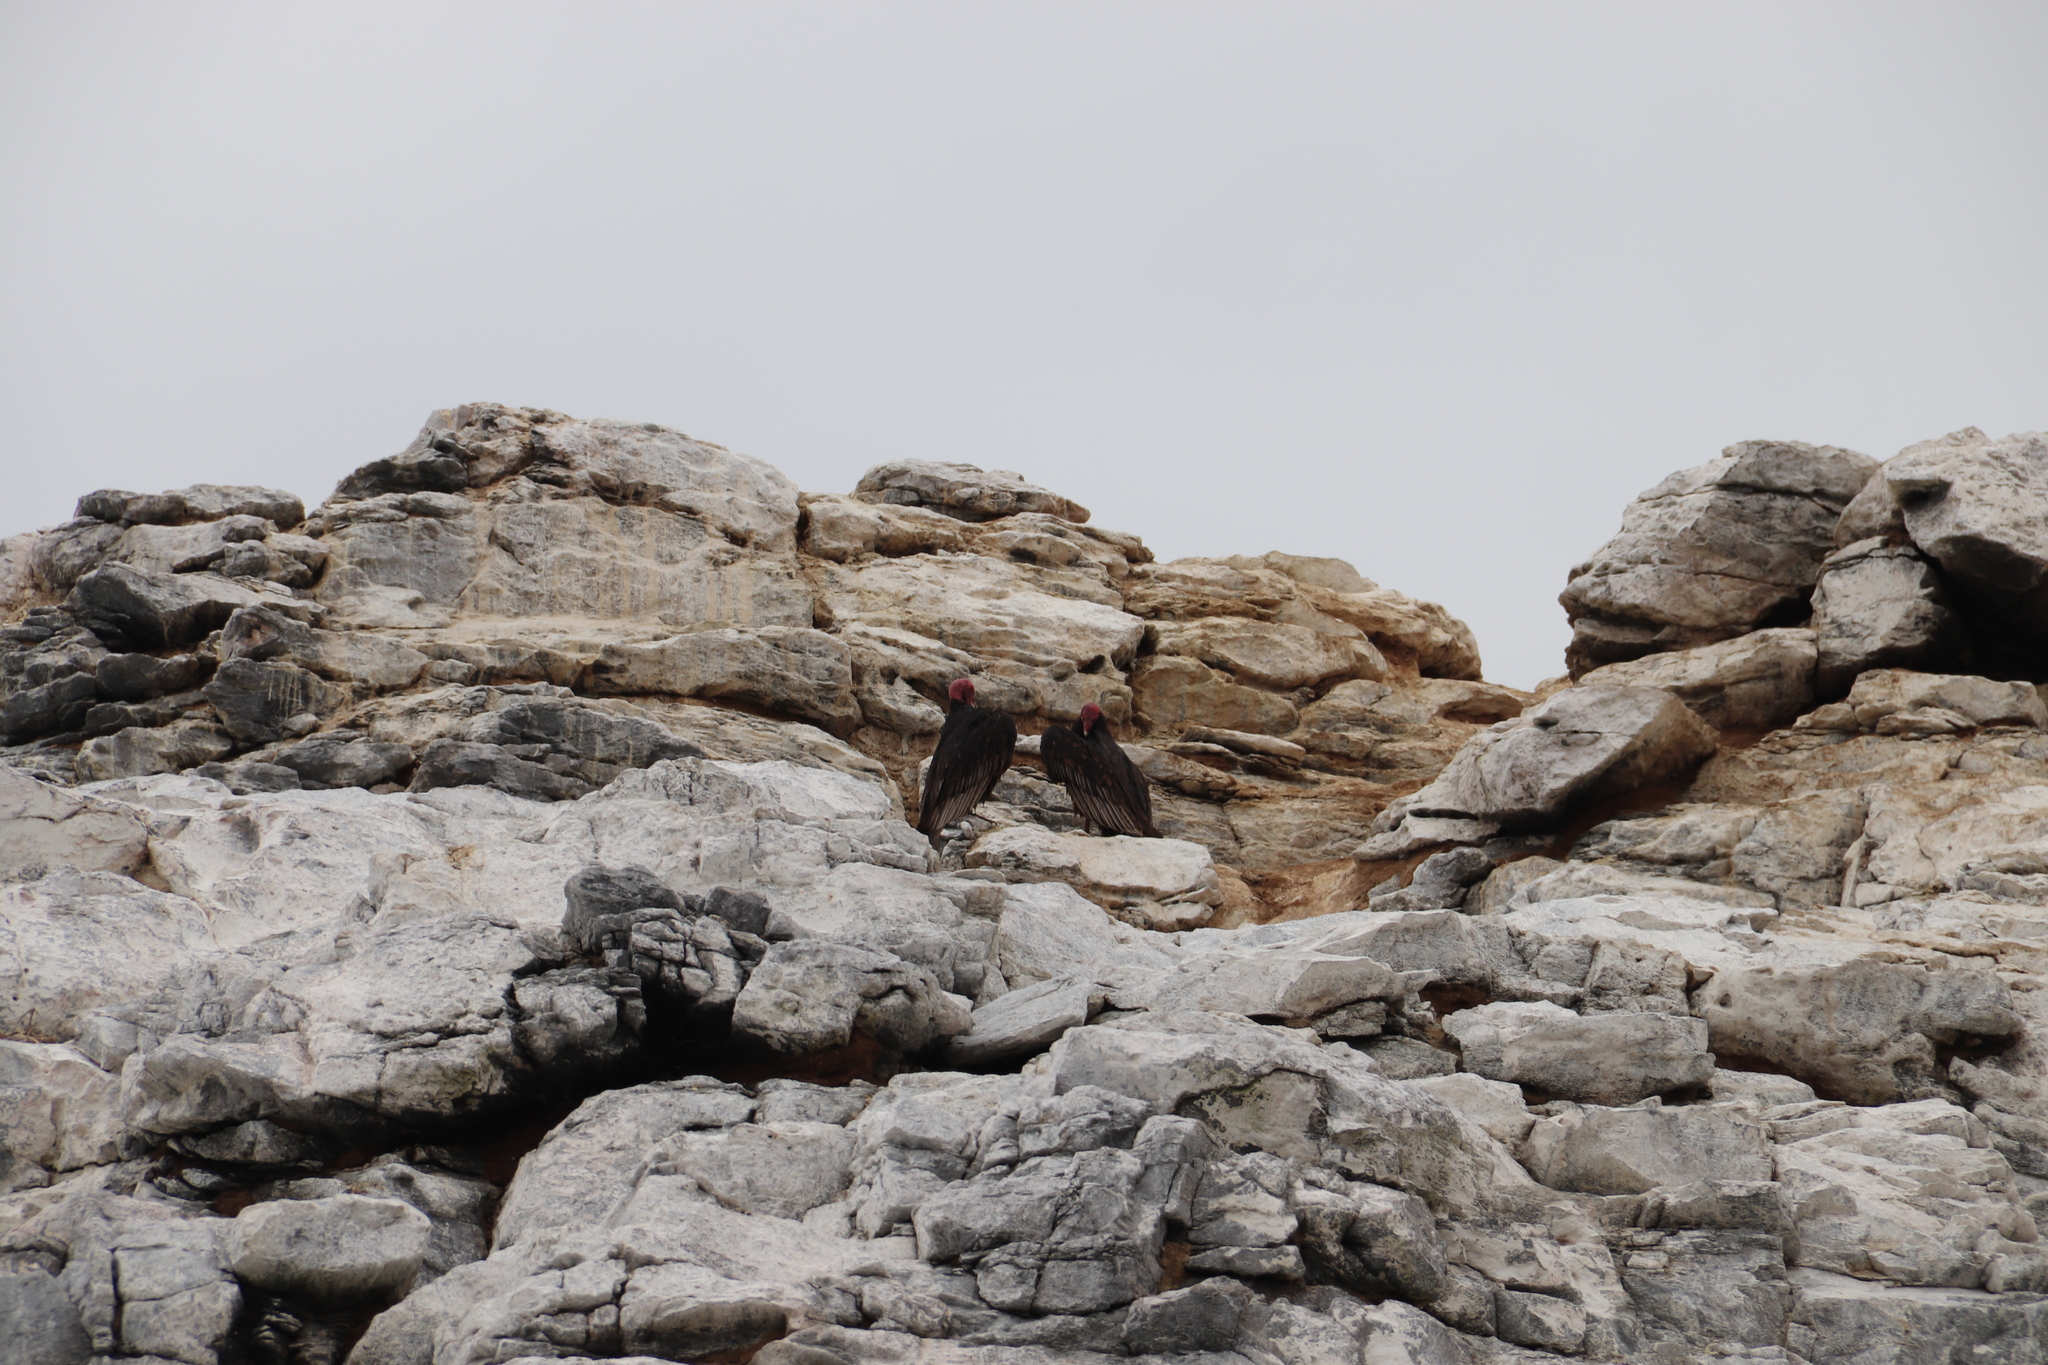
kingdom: Animalia
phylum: Chordata
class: Aves
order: Accipitriformes
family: Cathartidae
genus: Cathartes
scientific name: Cathartes aura
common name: Turkey vulture
